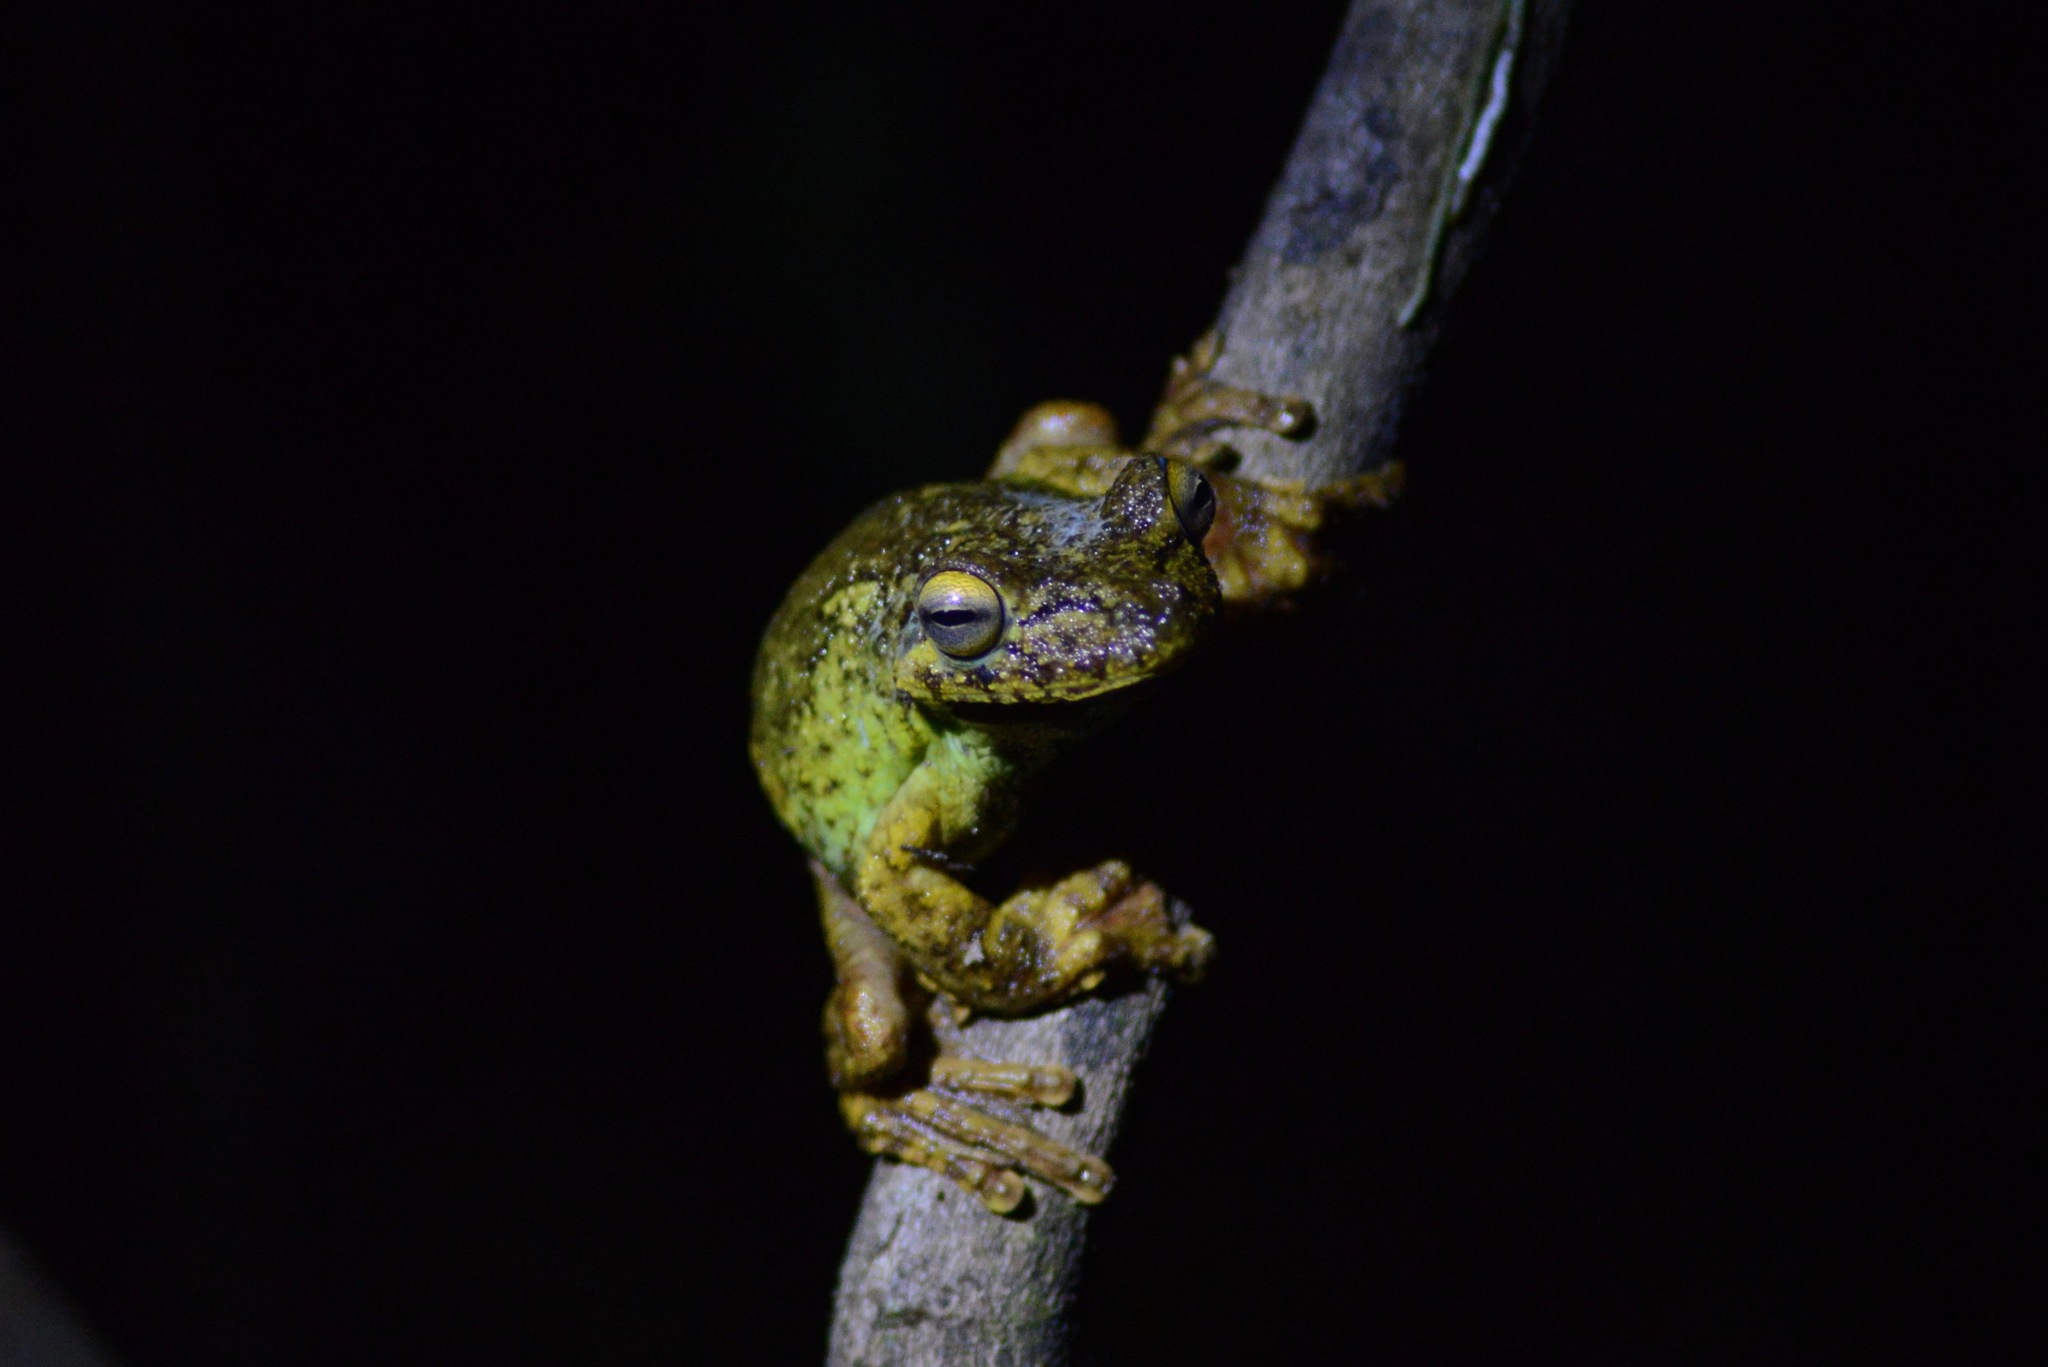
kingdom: Animalia
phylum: Chordata
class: Amphibia
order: Anura
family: Hylidae
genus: Boana
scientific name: Boana exastis
